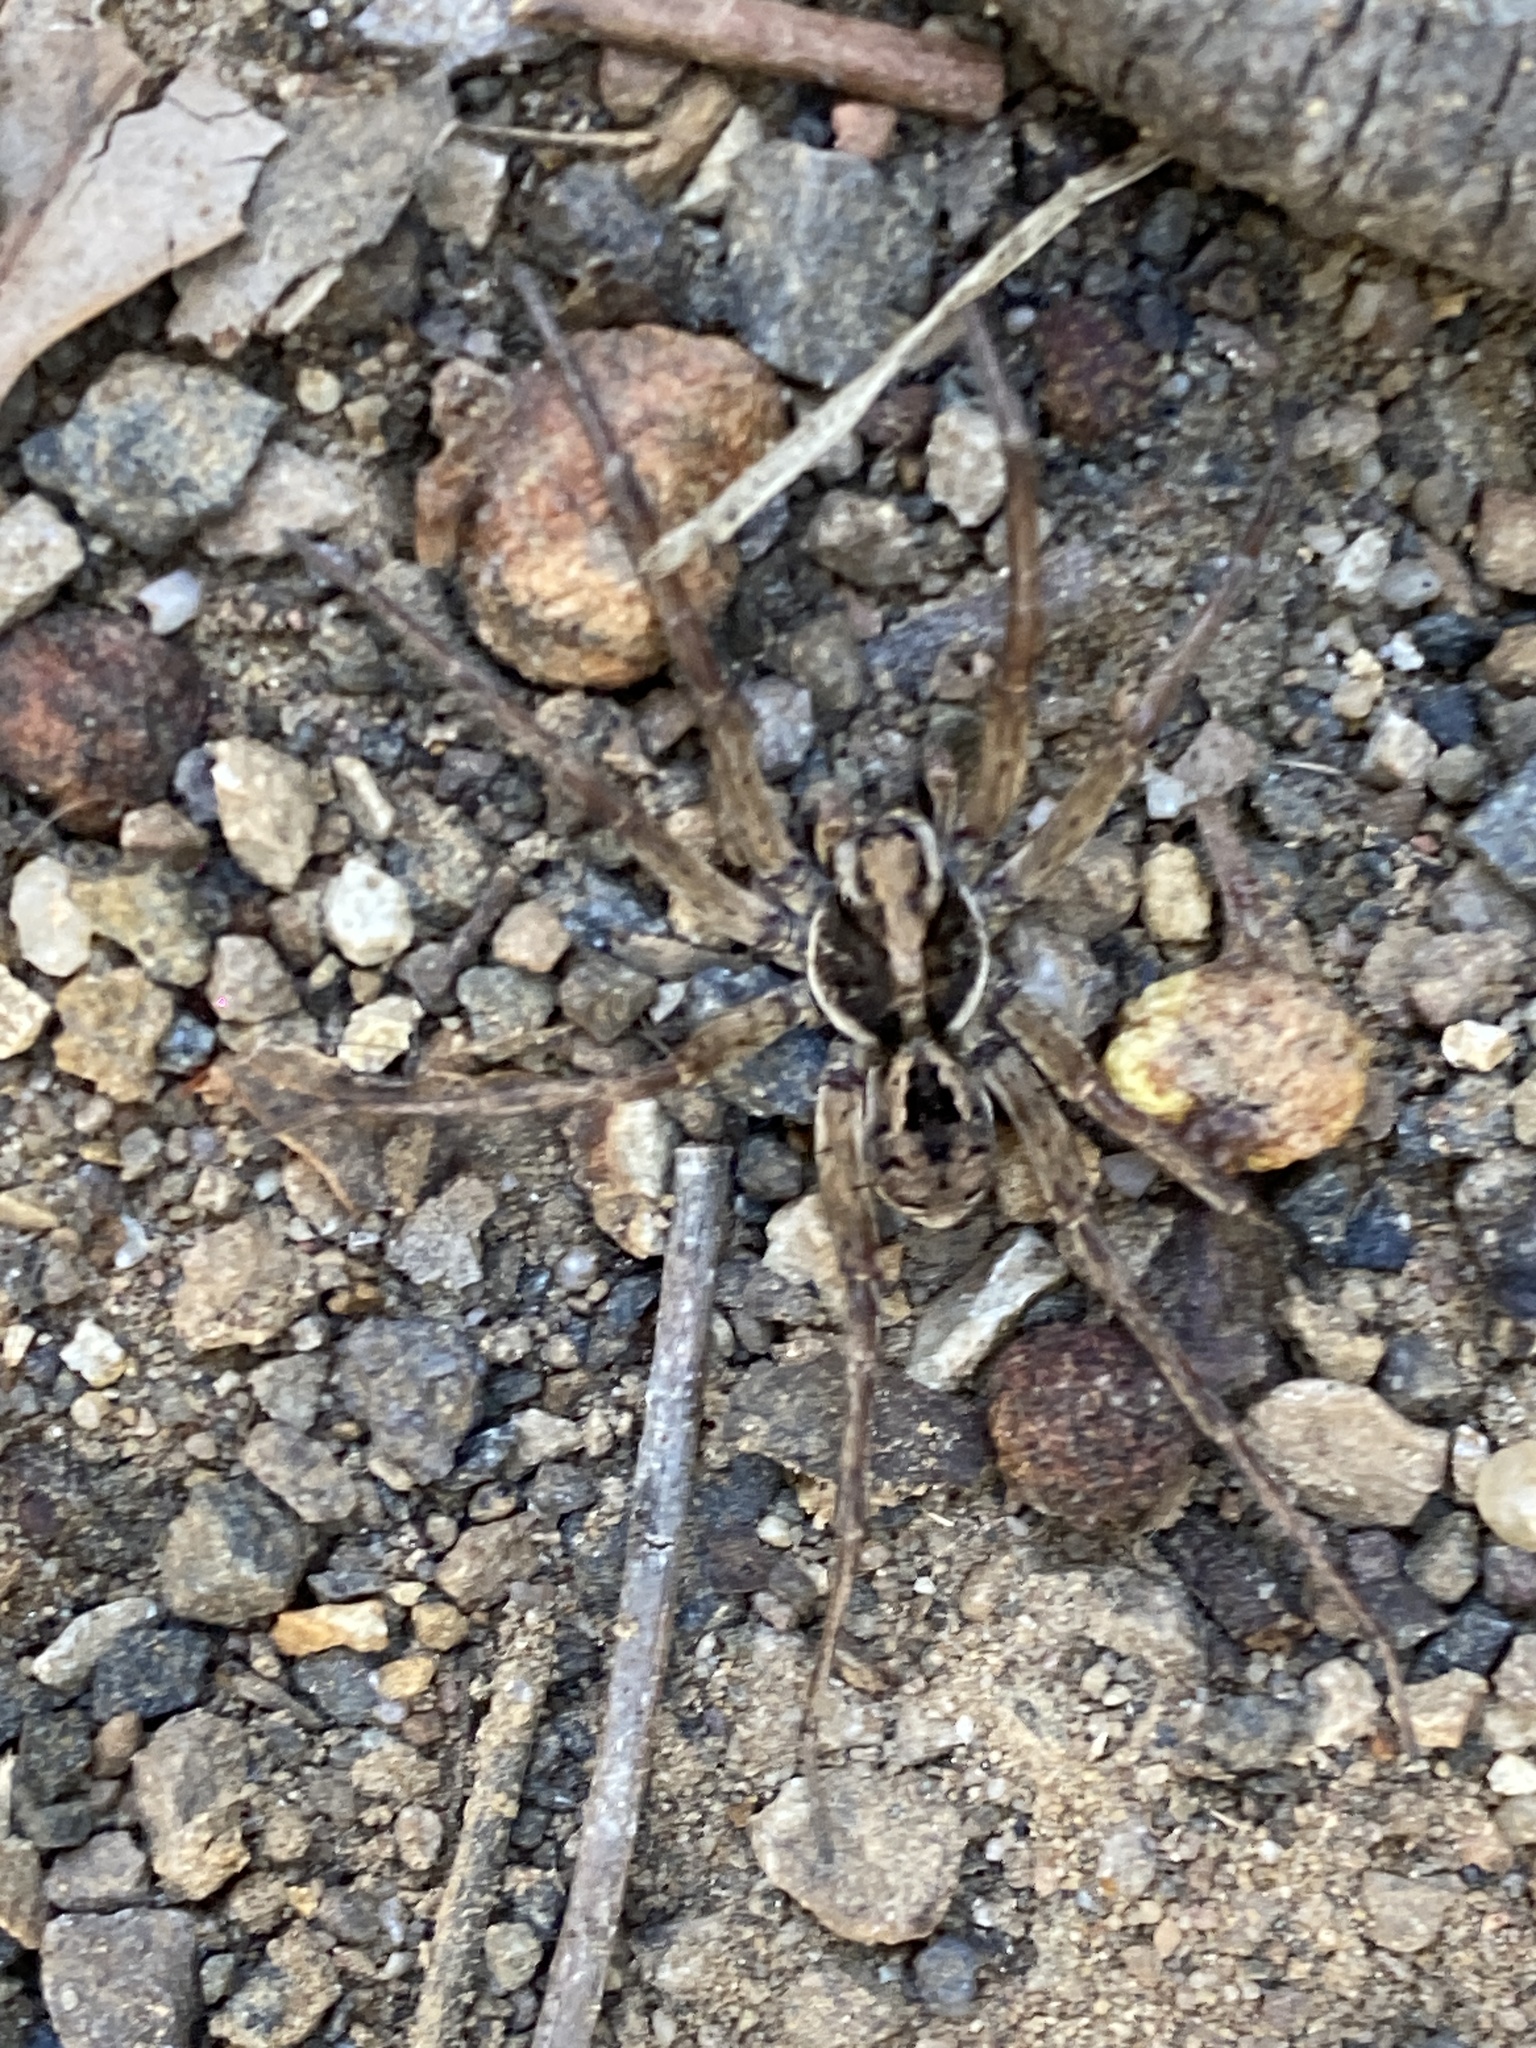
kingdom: Animalia
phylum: Arthropoda
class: Arachnida
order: Araneae
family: Lycosidae
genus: Venator
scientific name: Venator spenceri
